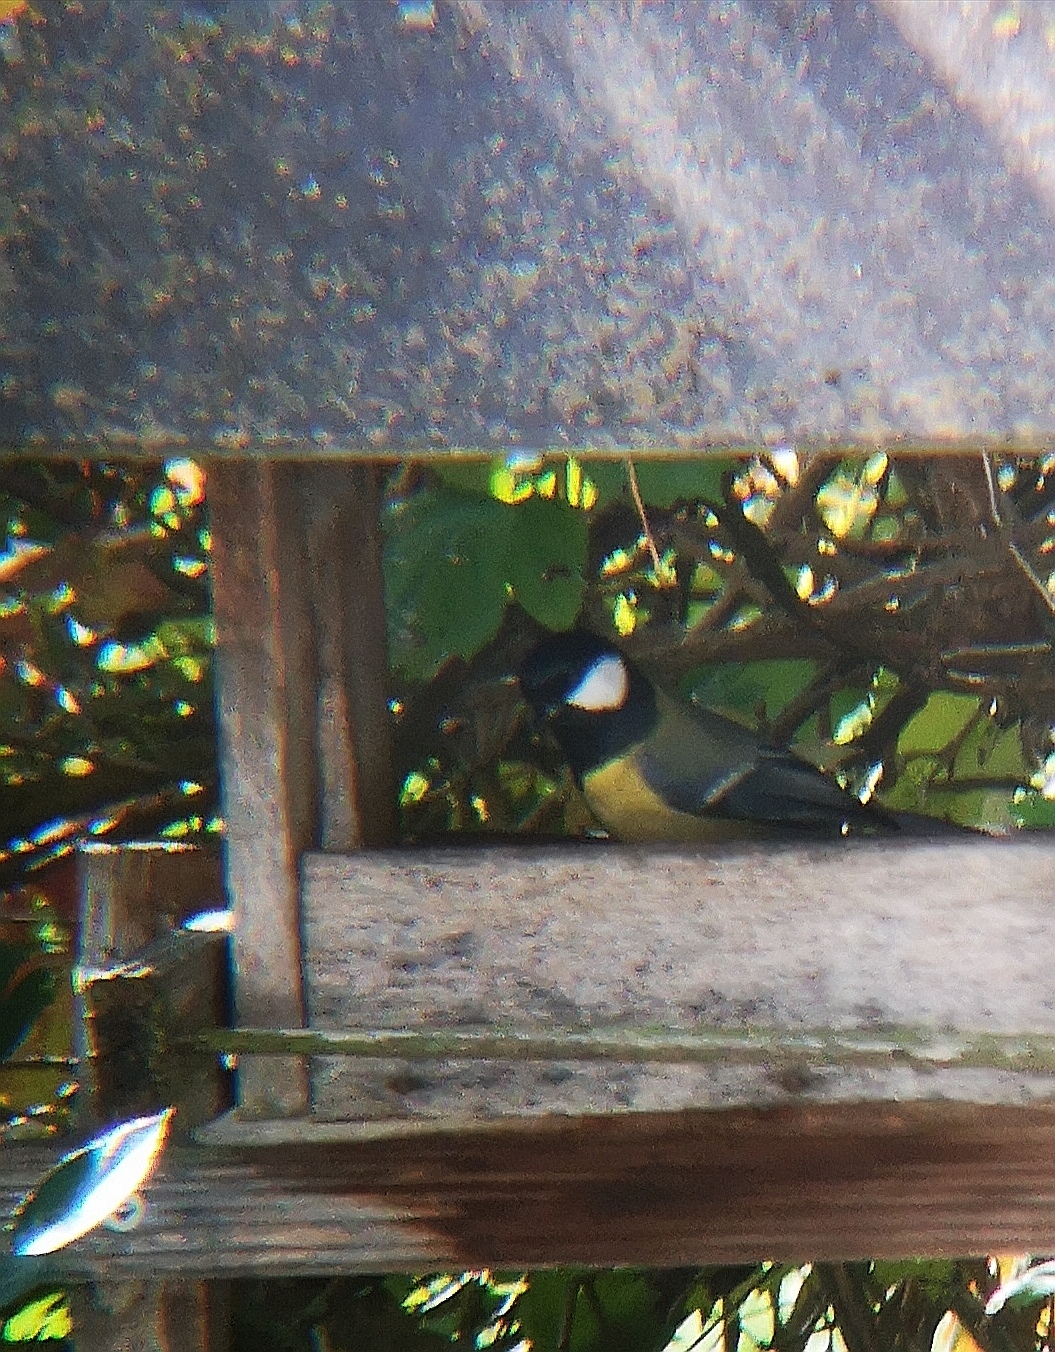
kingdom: Animalia
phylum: Chordata
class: Aves
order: Passeriformes
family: Paridae
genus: Parus
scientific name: Parus major
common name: Great tit
